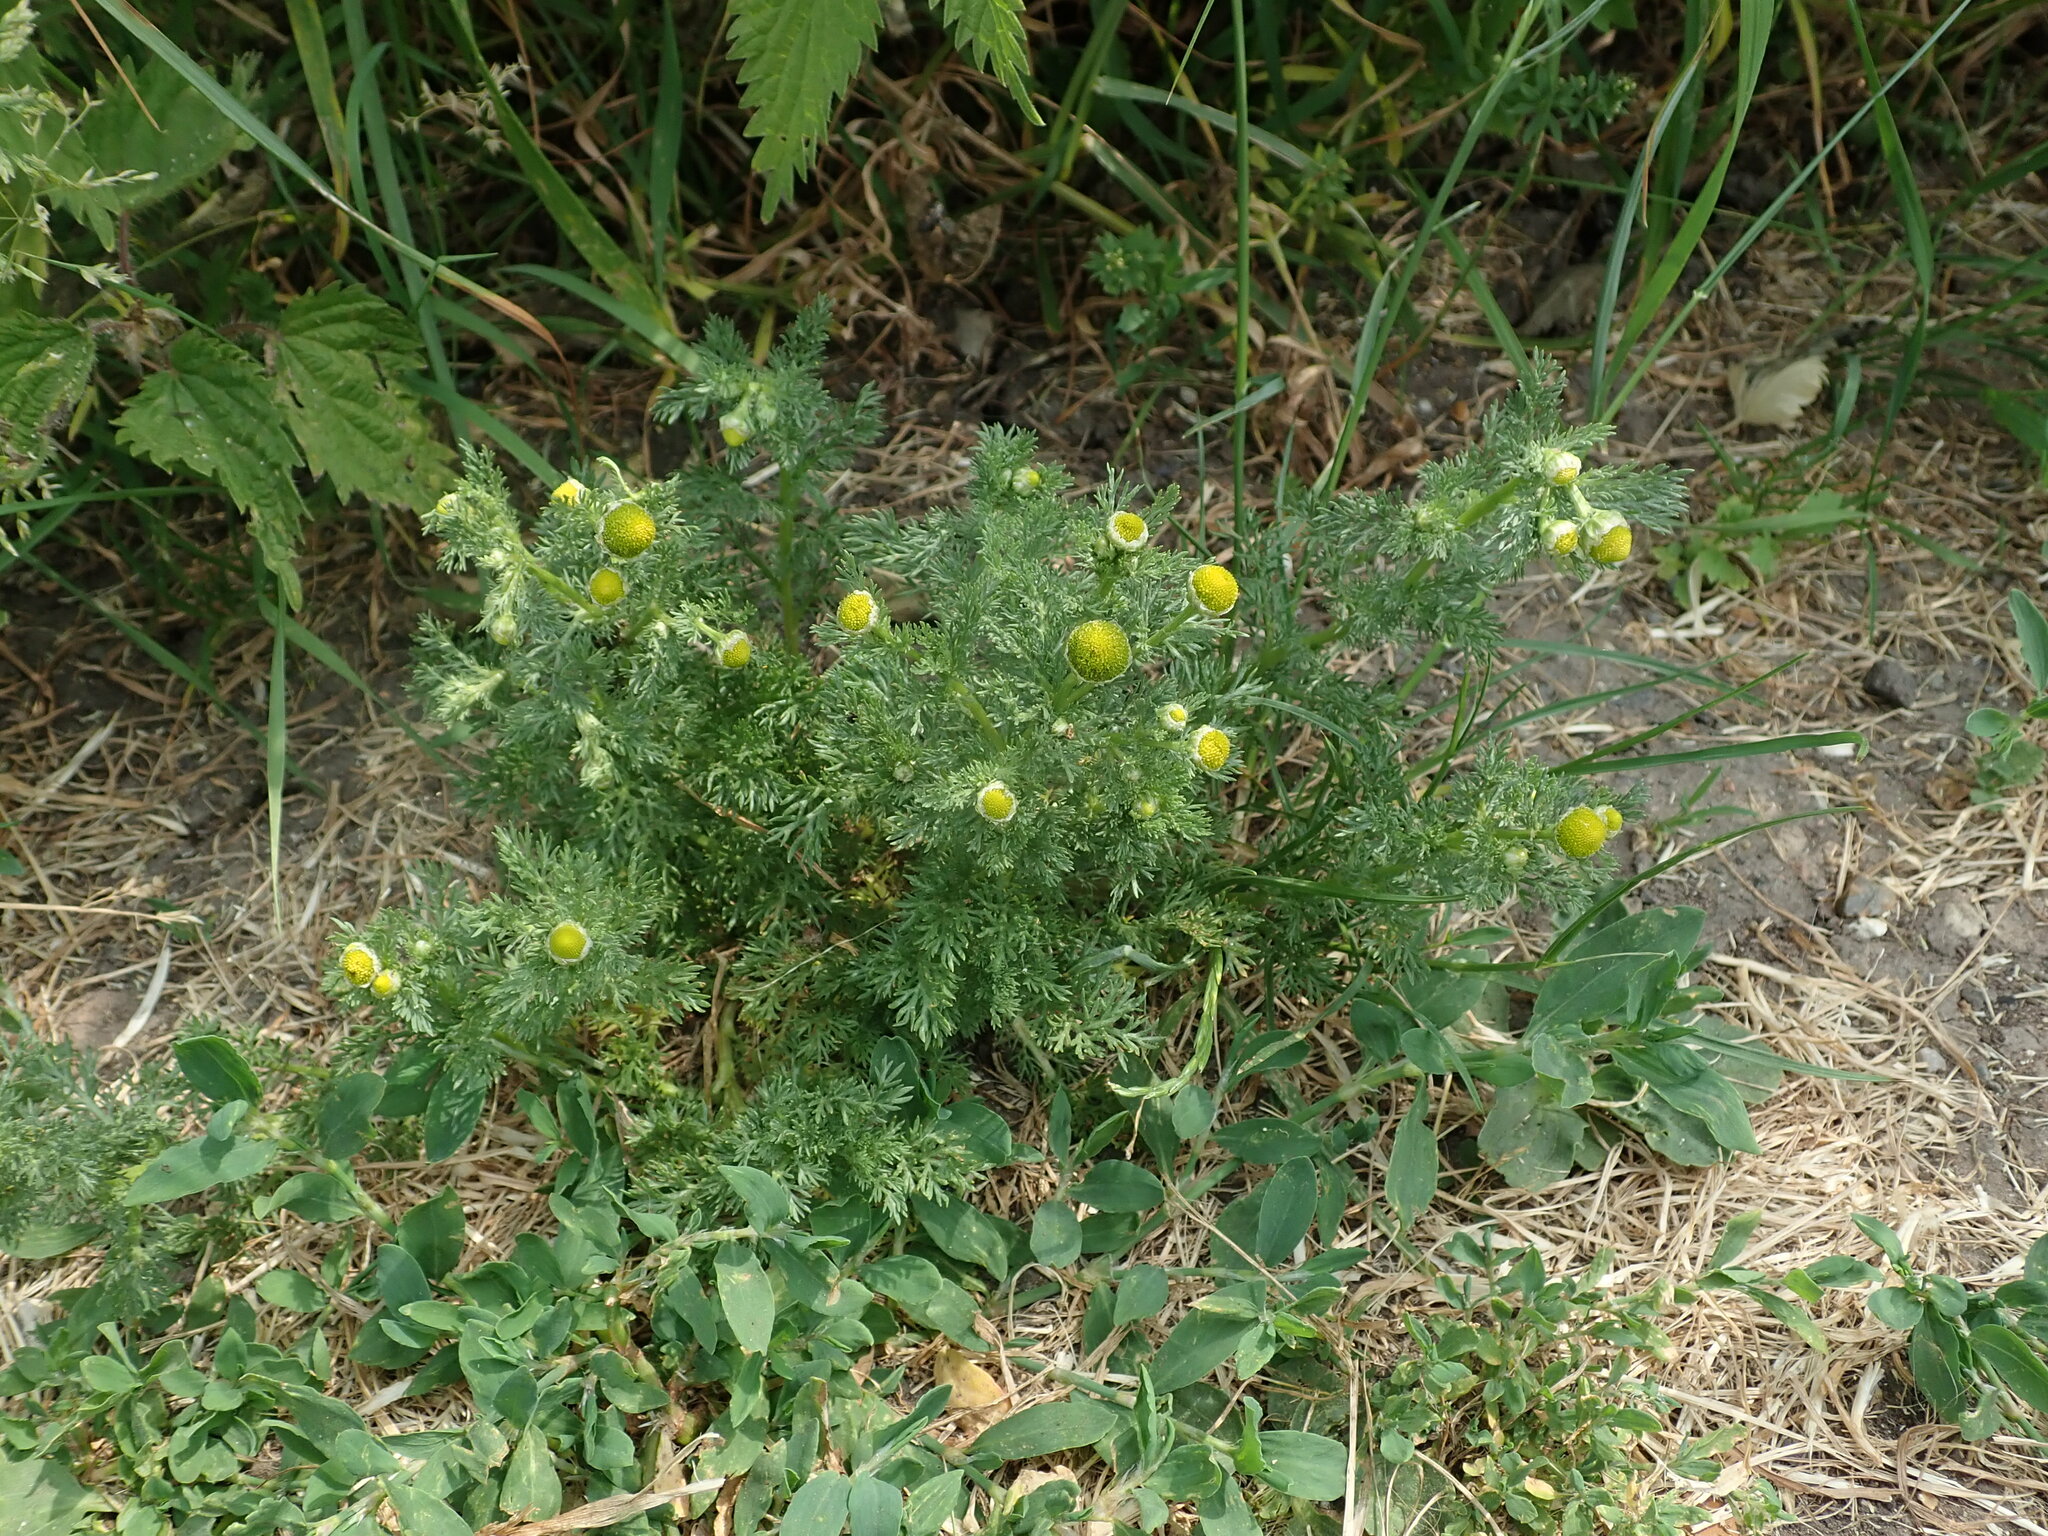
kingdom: Plantae
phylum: Tracheophyta
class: Magnoliopsida
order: Asterales
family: Asteraceae
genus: Matricaria
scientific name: Matricaria discoidea
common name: Disc mayweed
